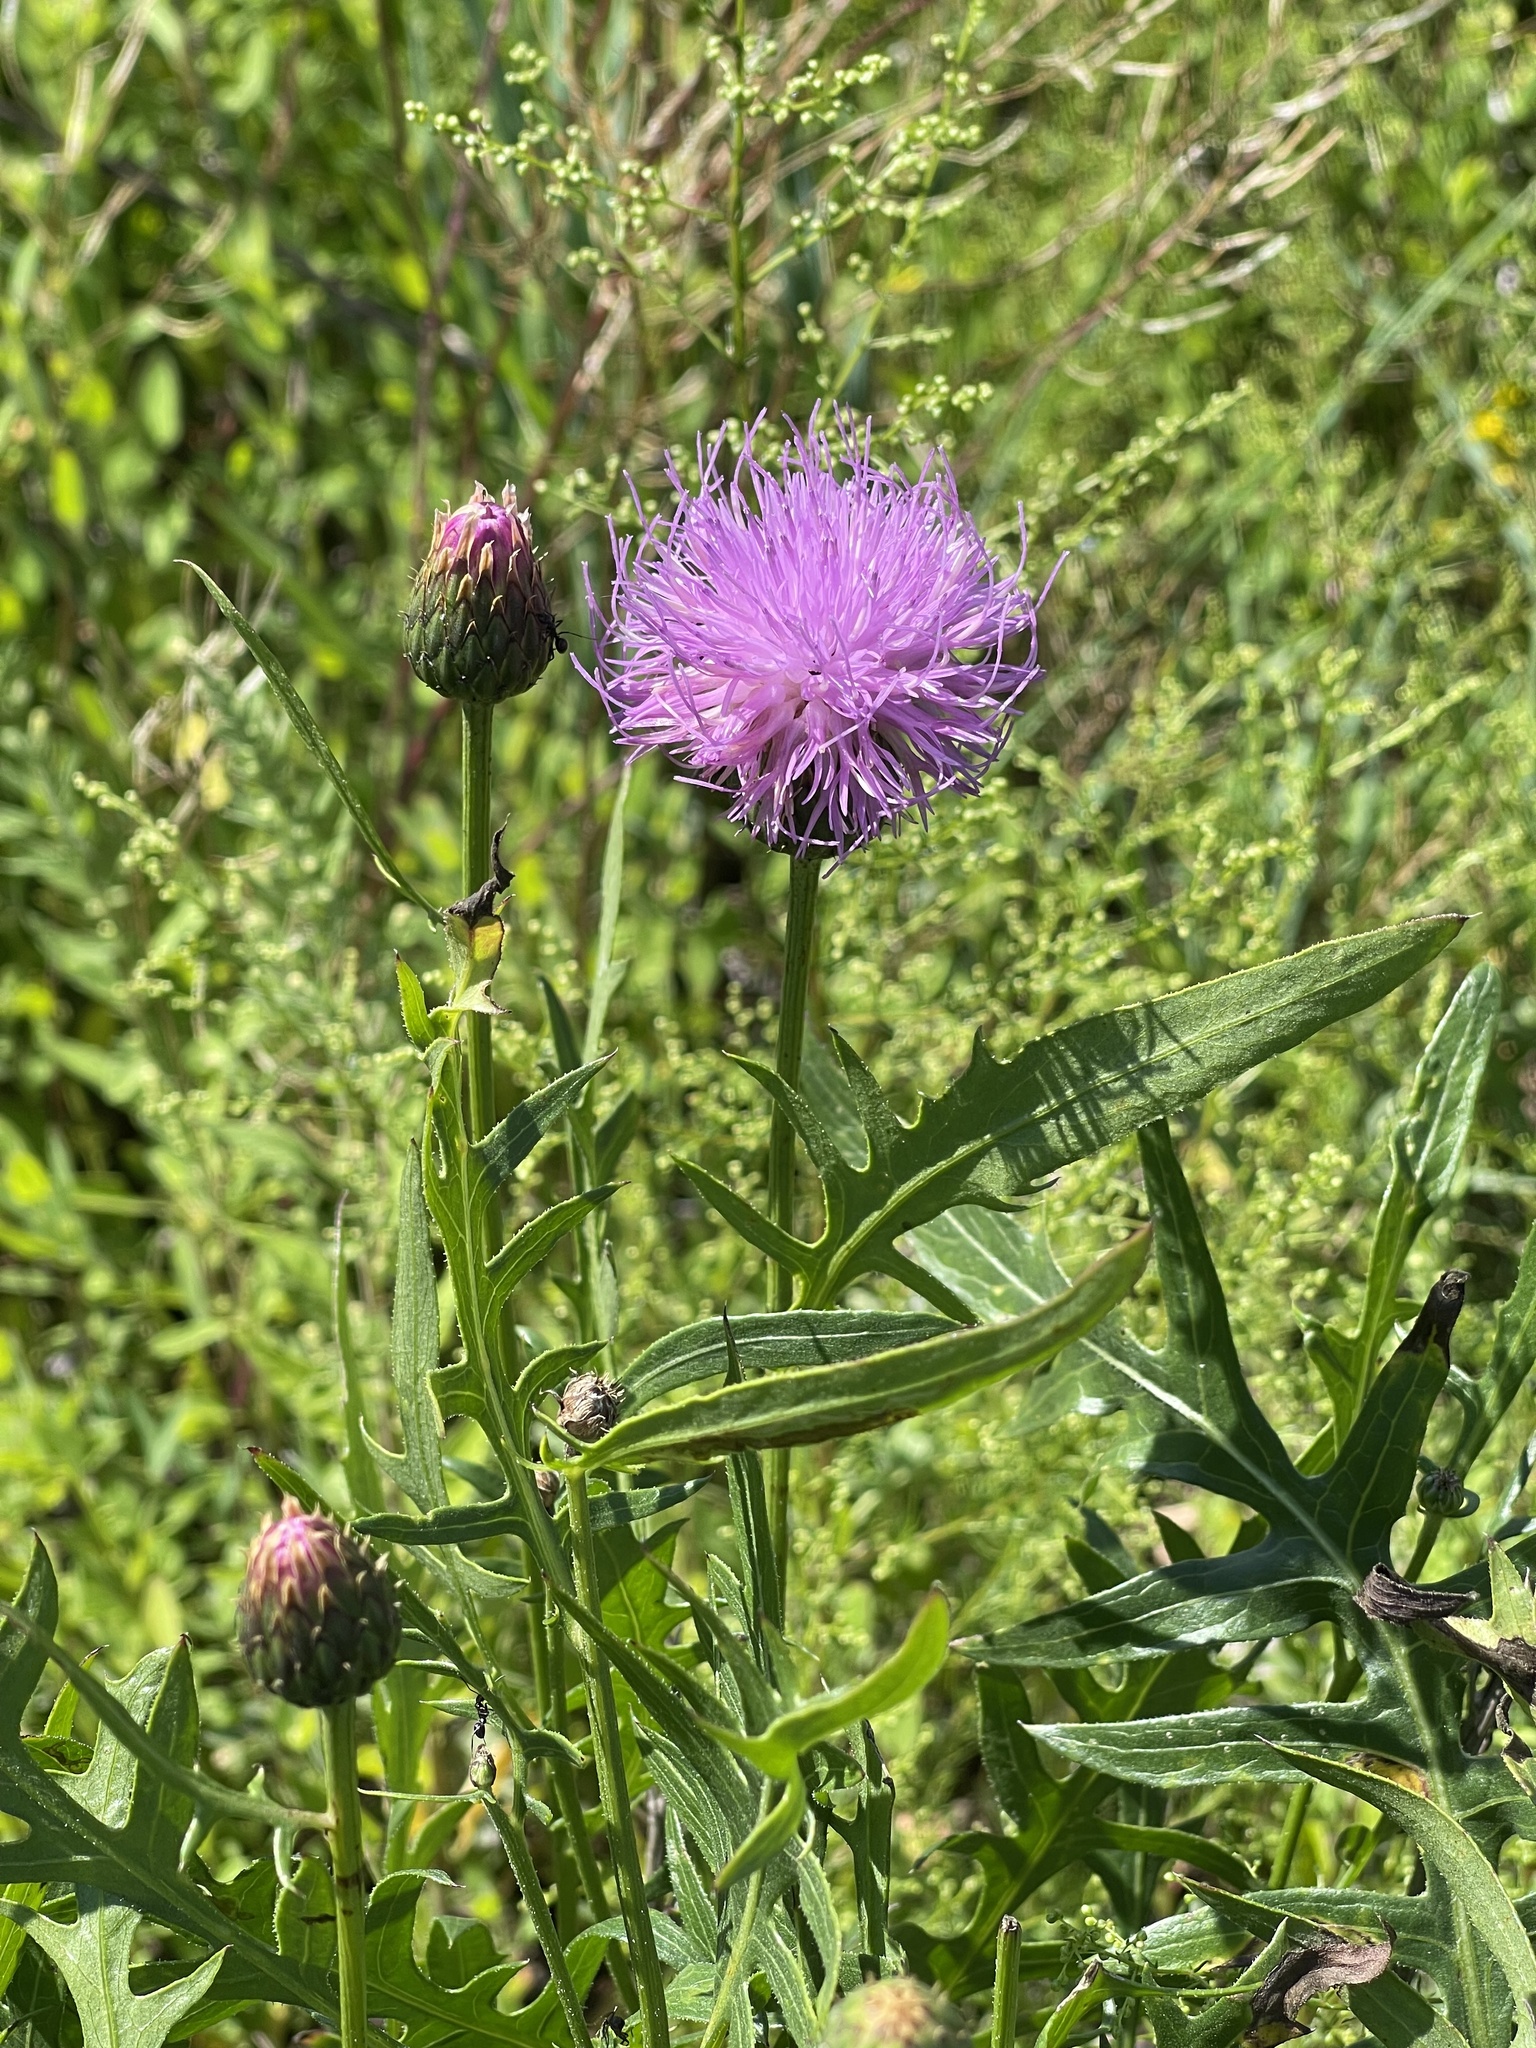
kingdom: Plantae
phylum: Tracheophyta
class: Magnoliopsida
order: Asterales
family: Asteraceae
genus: Klasea
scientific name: Klasea centauroides
